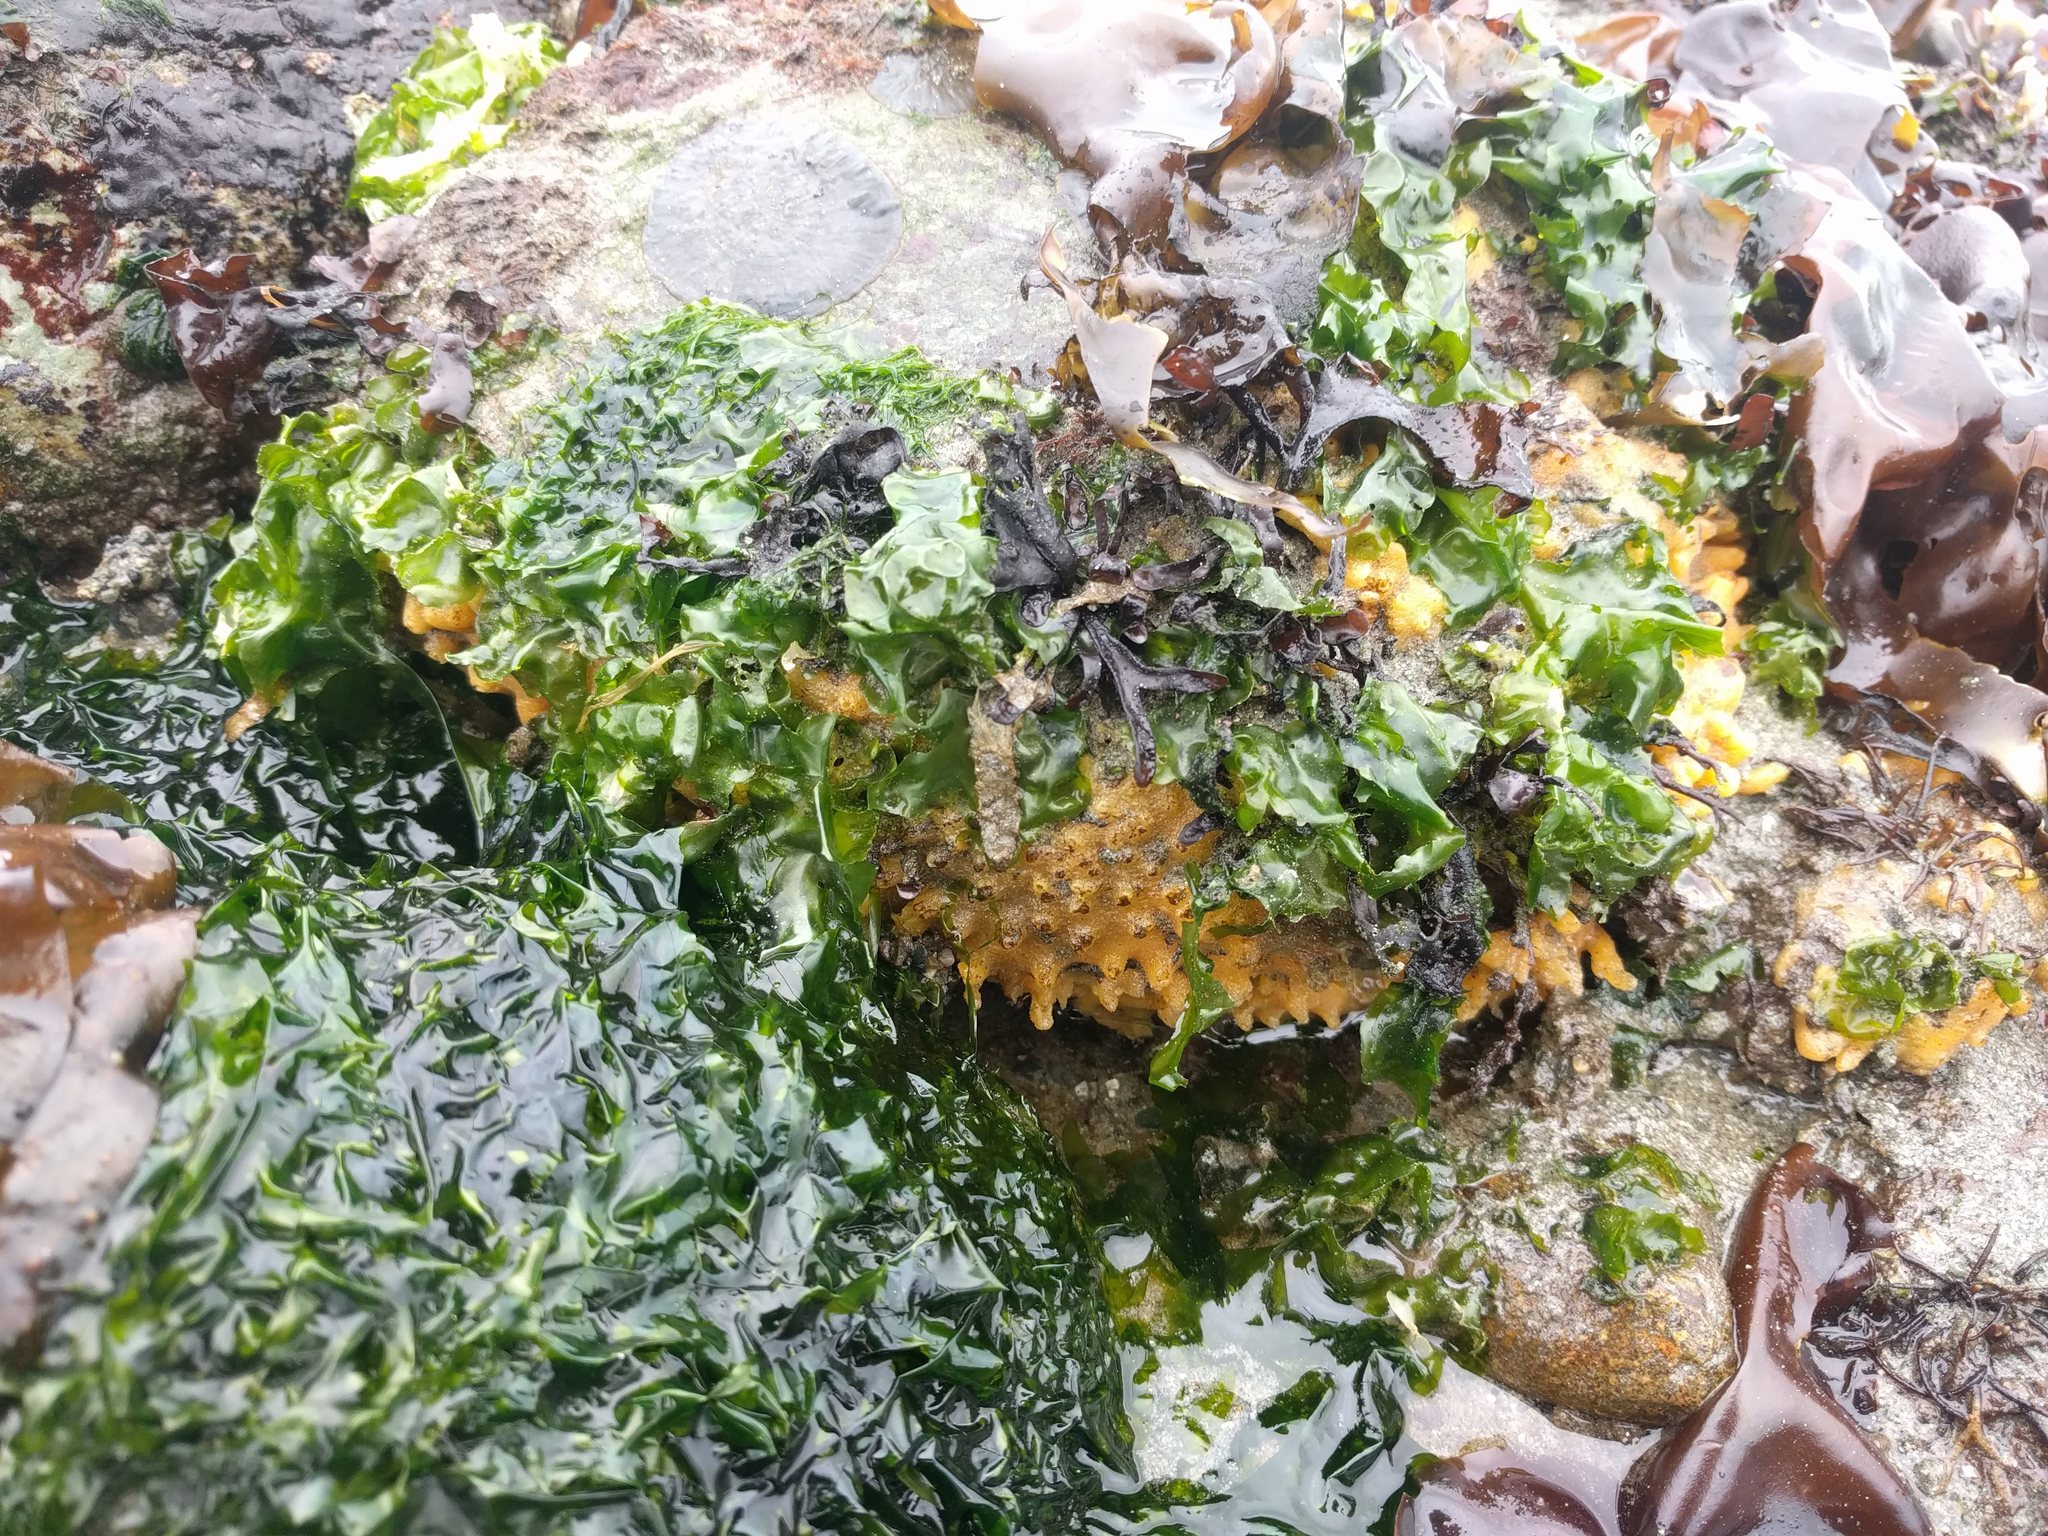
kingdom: Animalia
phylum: Porifera
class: Demospongiae
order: Suberitida
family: Halichondriidae
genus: Halichondria
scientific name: Halichondria panicea
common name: Breadcrumb sponge
